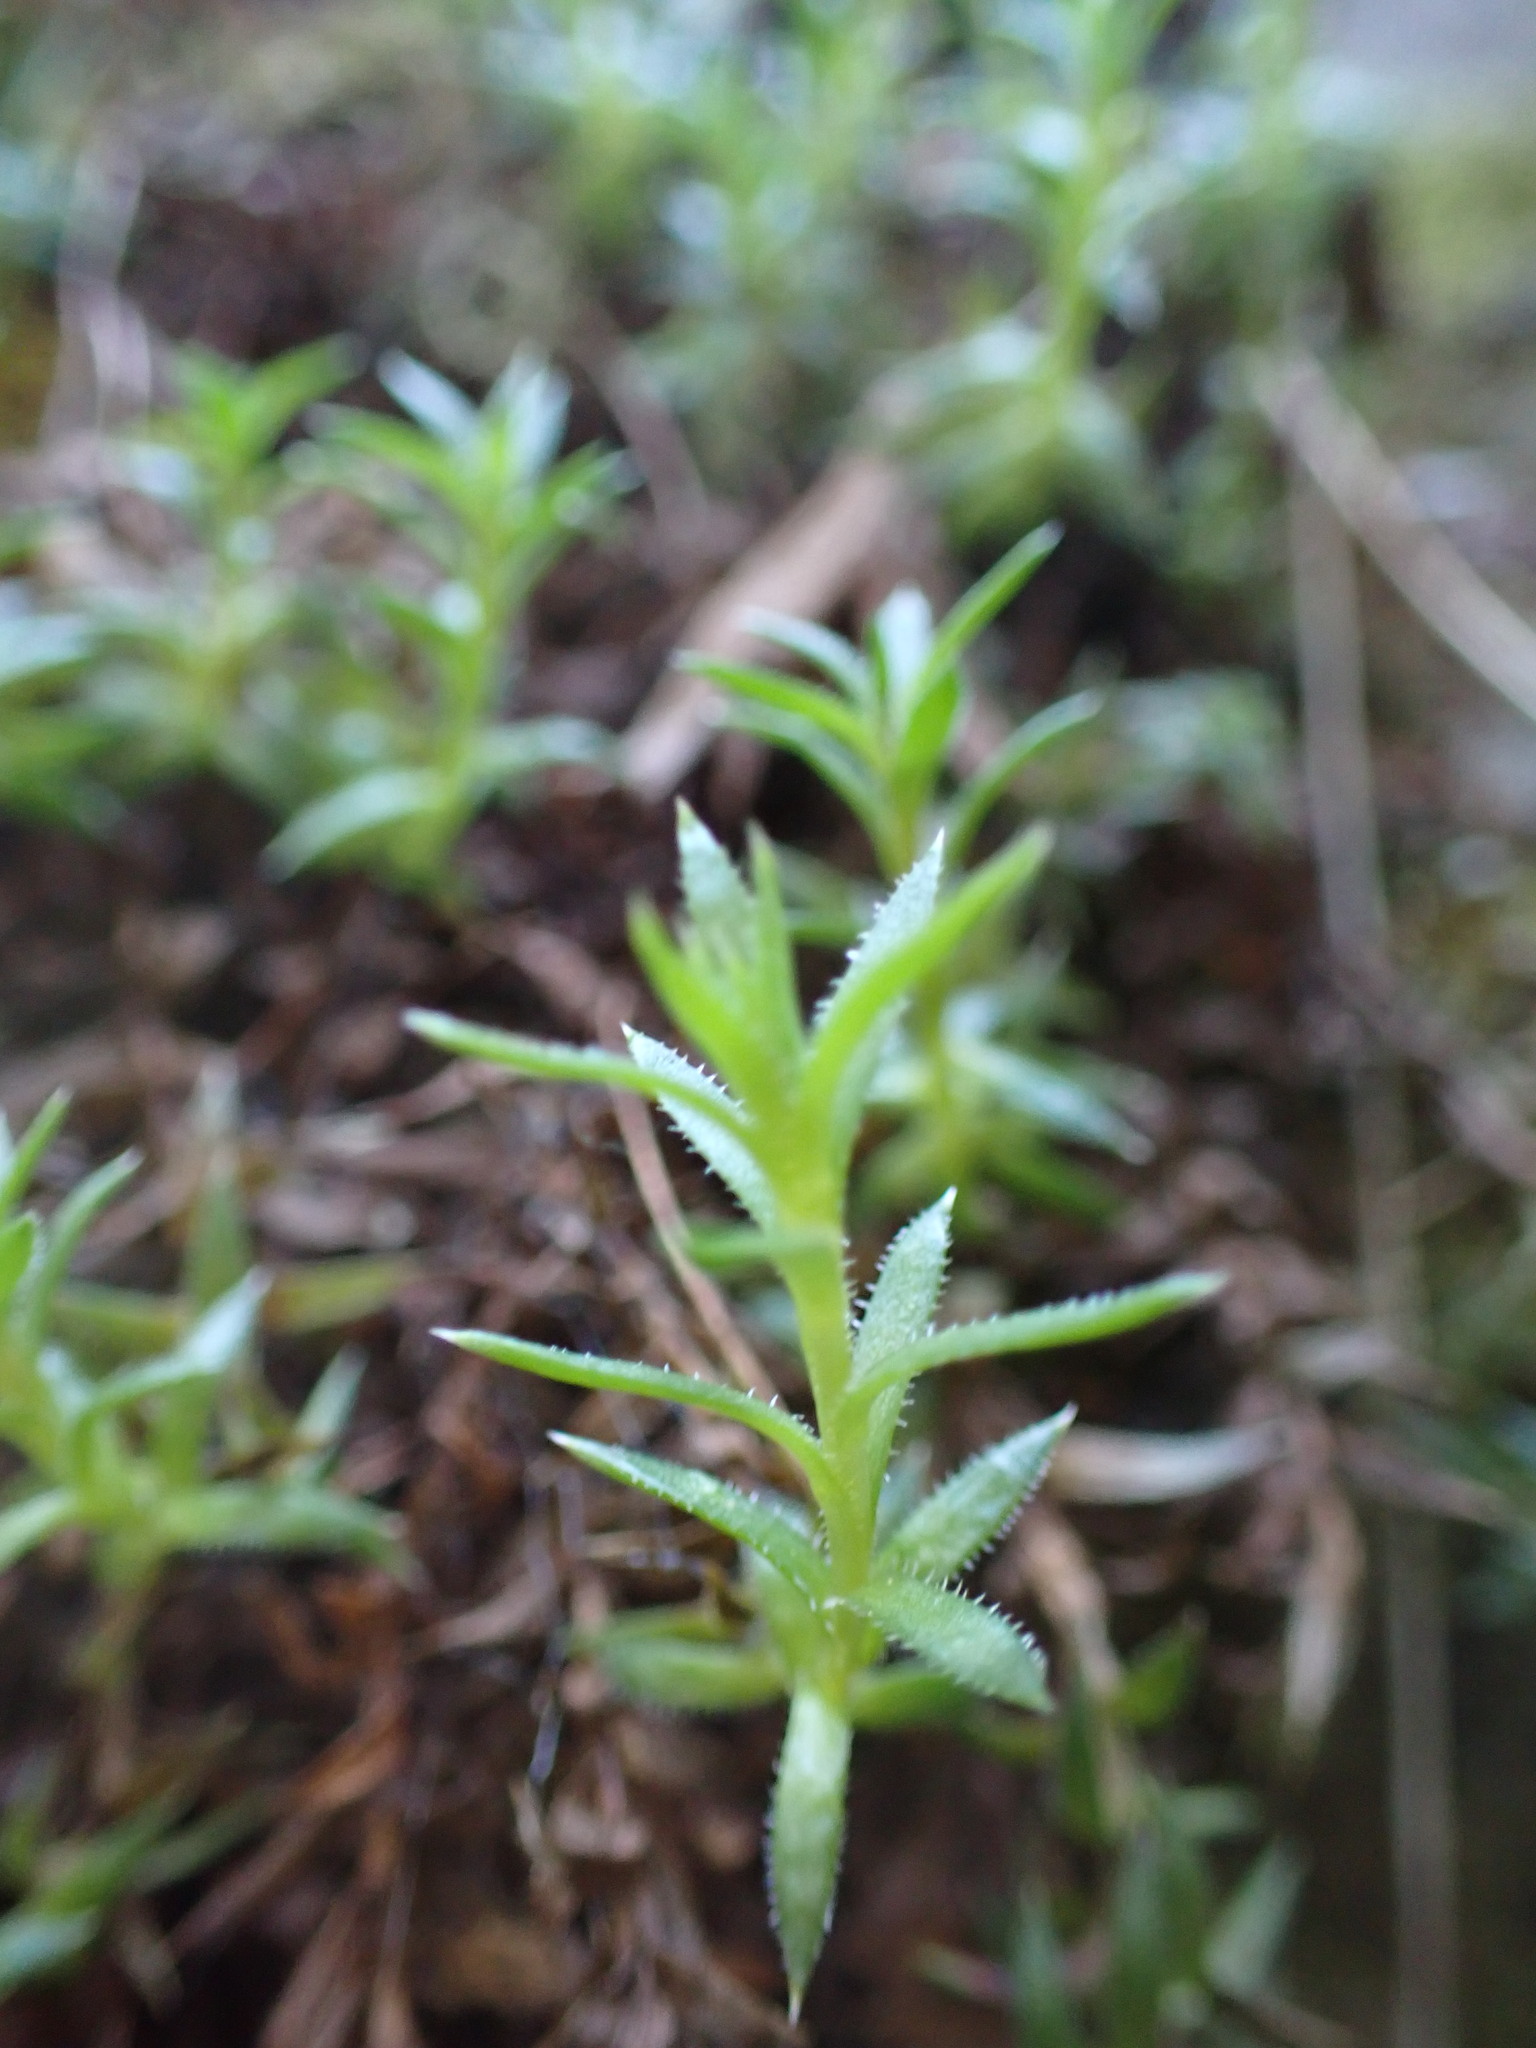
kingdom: Plantae
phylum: Tracheophyta
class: Magnoliopsida
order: Saxifragales
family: Saxifragaceae
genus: Saxifraga
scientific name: Saxifraga bronchialis
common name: Matted saxifrage
